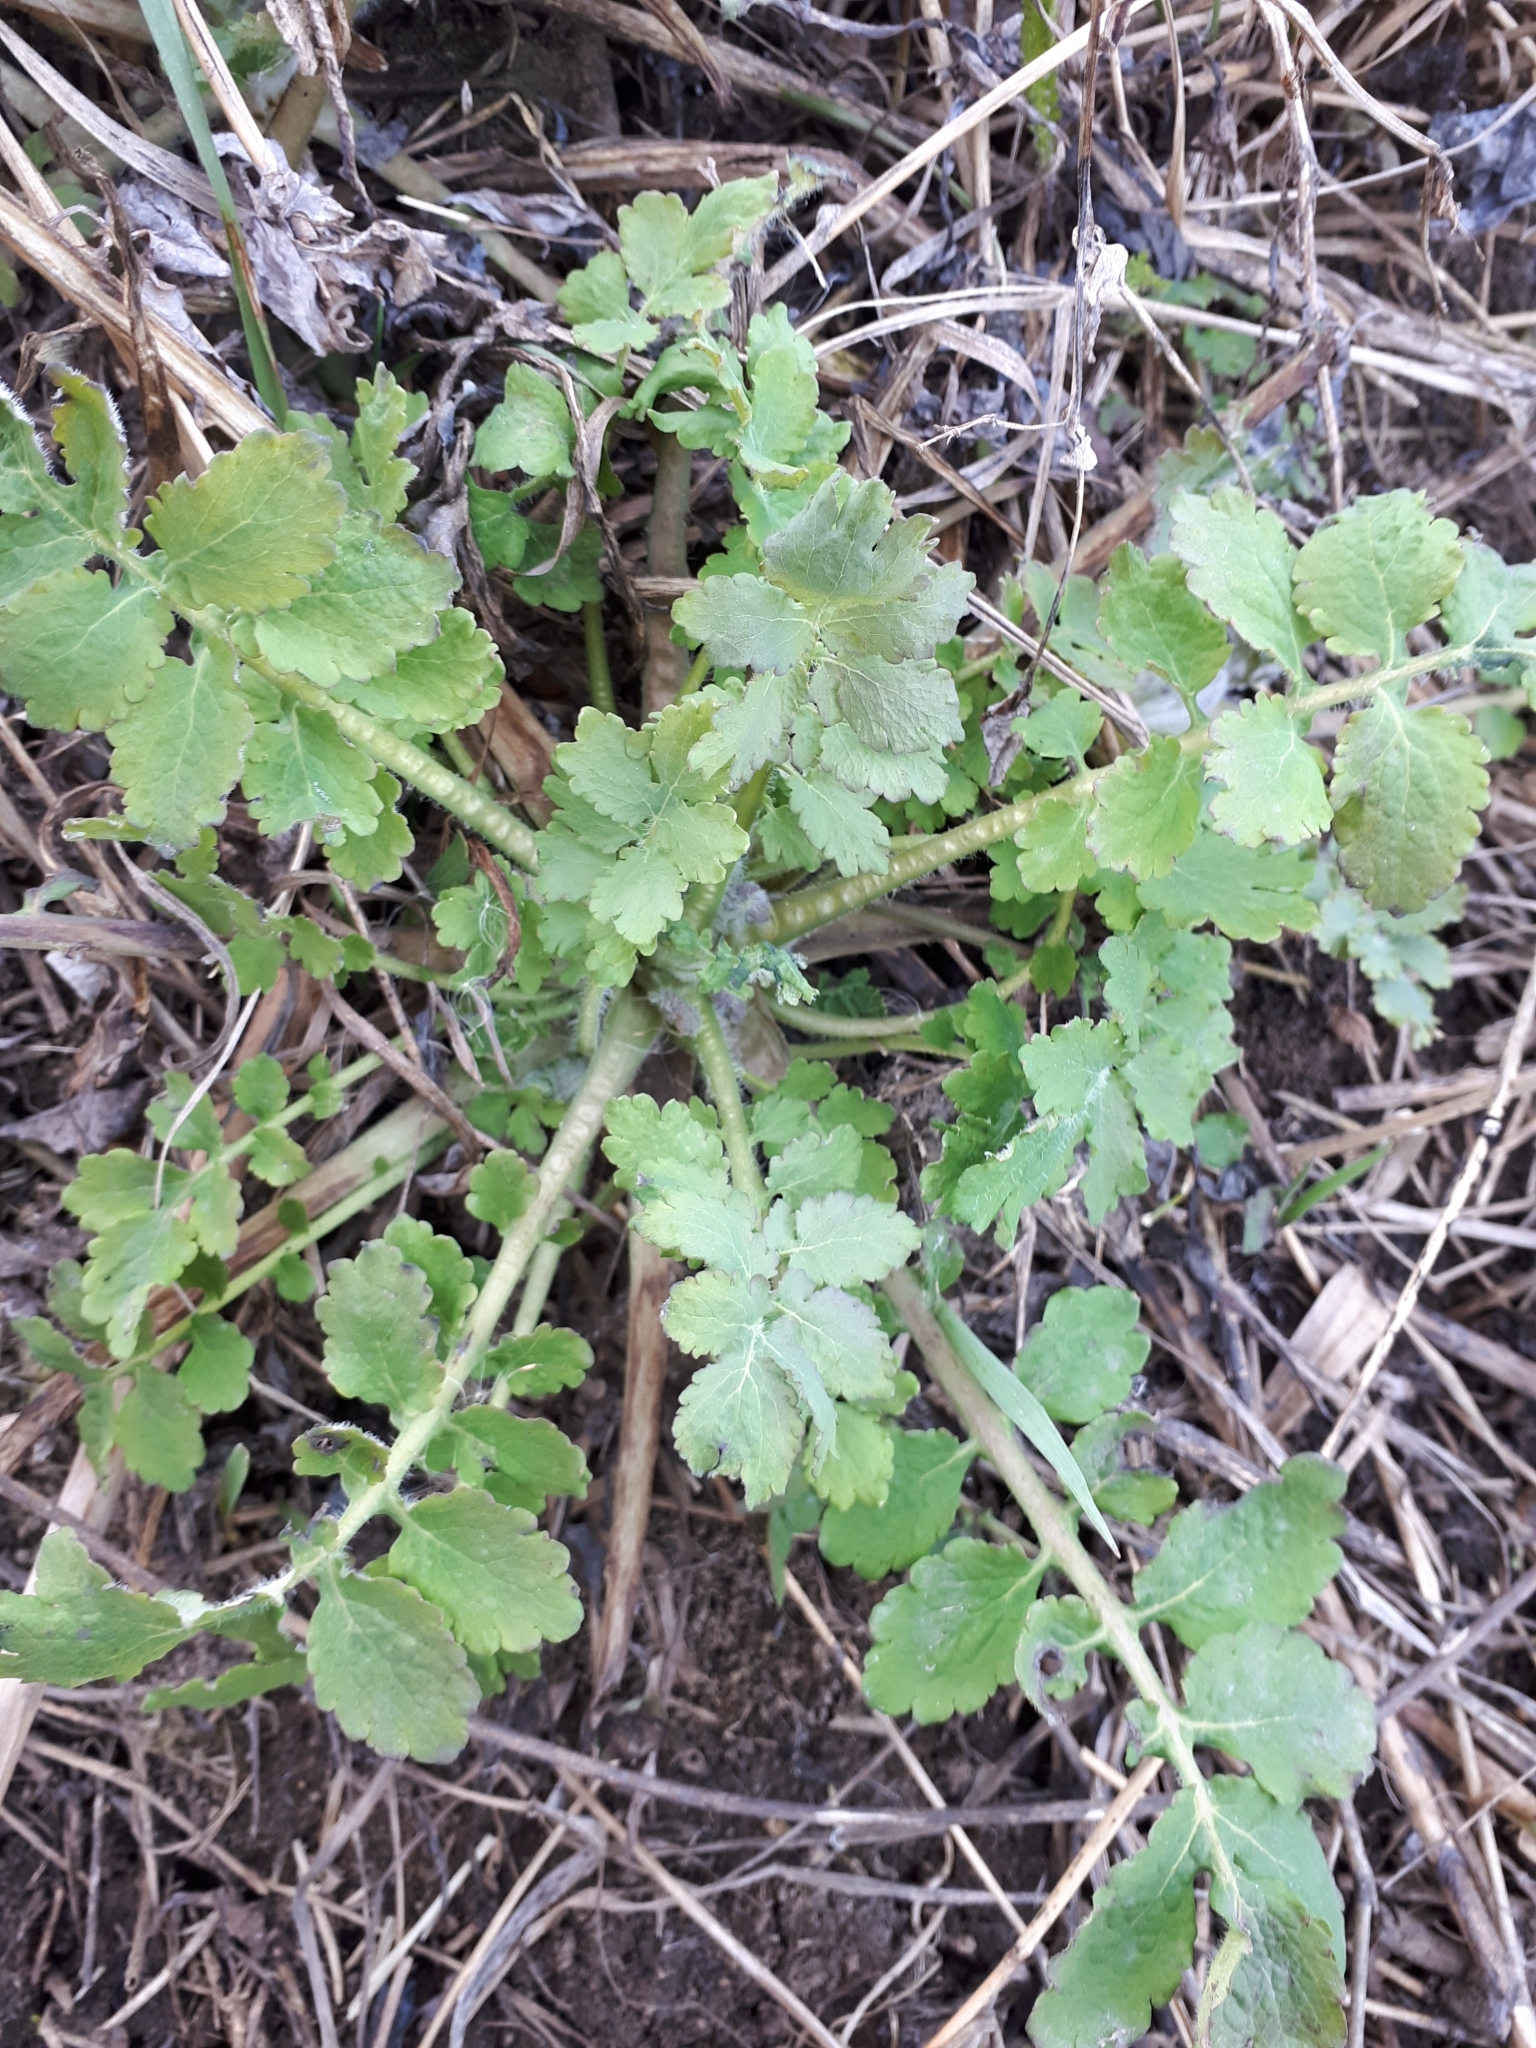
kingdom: Plantae
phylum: Tracheophyta
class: Magnoliopsida
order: Ranunculales
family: Papaveraceae
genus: Chelidonium
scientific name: Chelidonium majus
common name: Greater celandine
